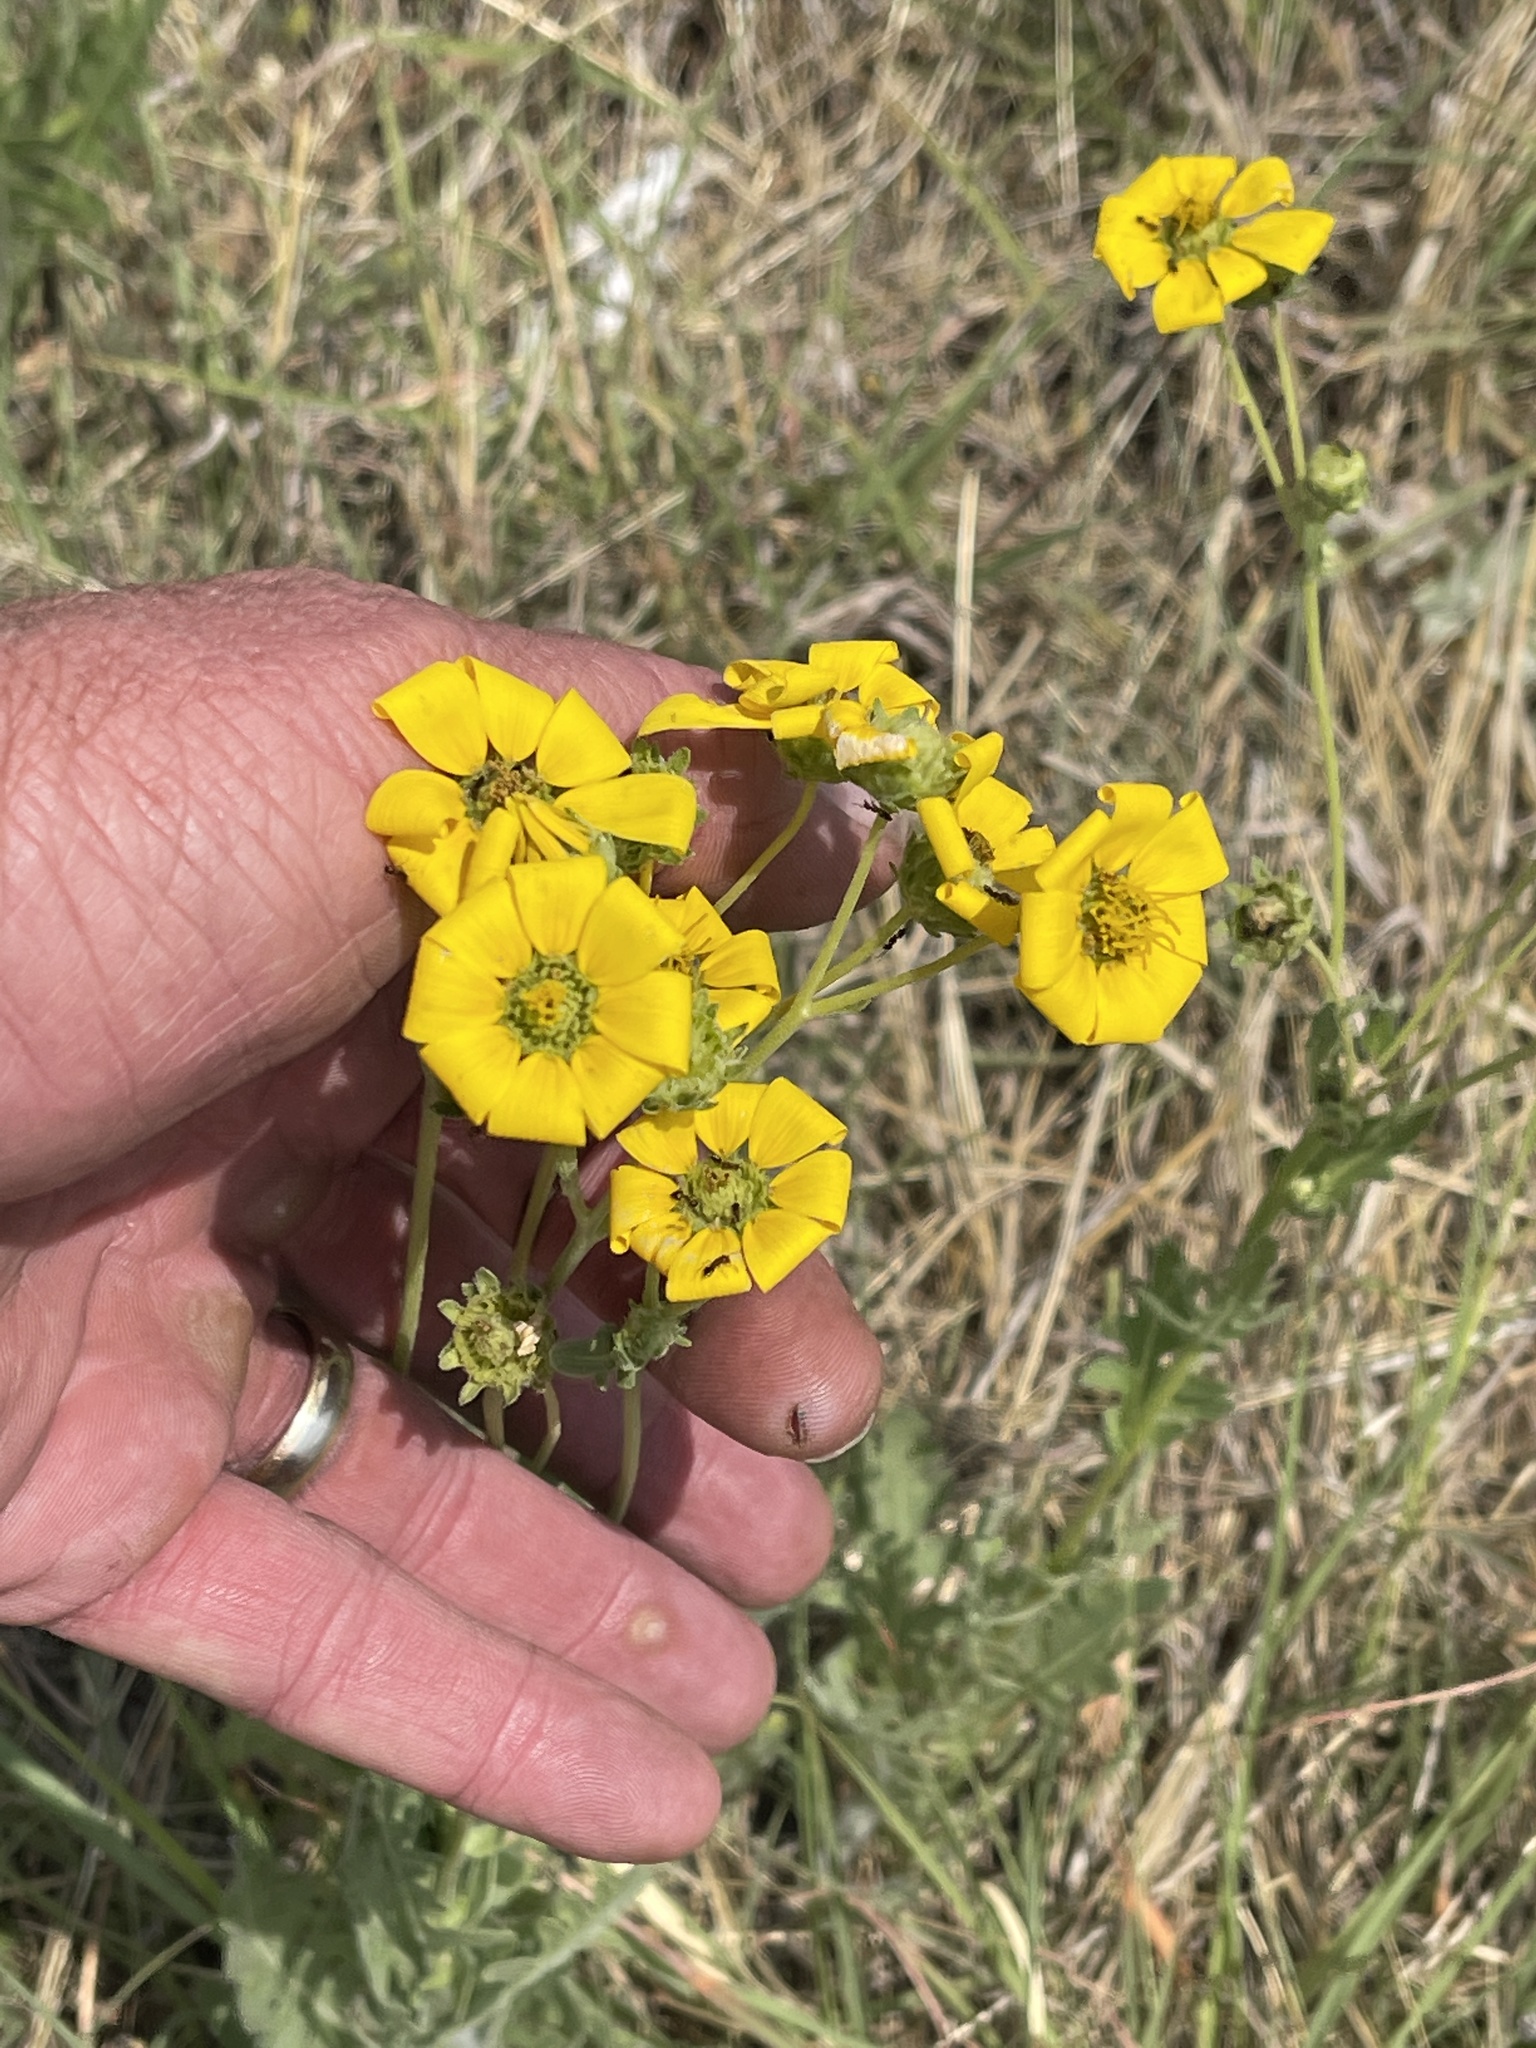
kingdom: Plantae
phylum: Tracheophyta
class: Magnoliopsida
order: Asterales
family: Asteraceae
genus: Engelmannia
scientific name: Engelmannia peristenia
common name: Engelmann's daisy
